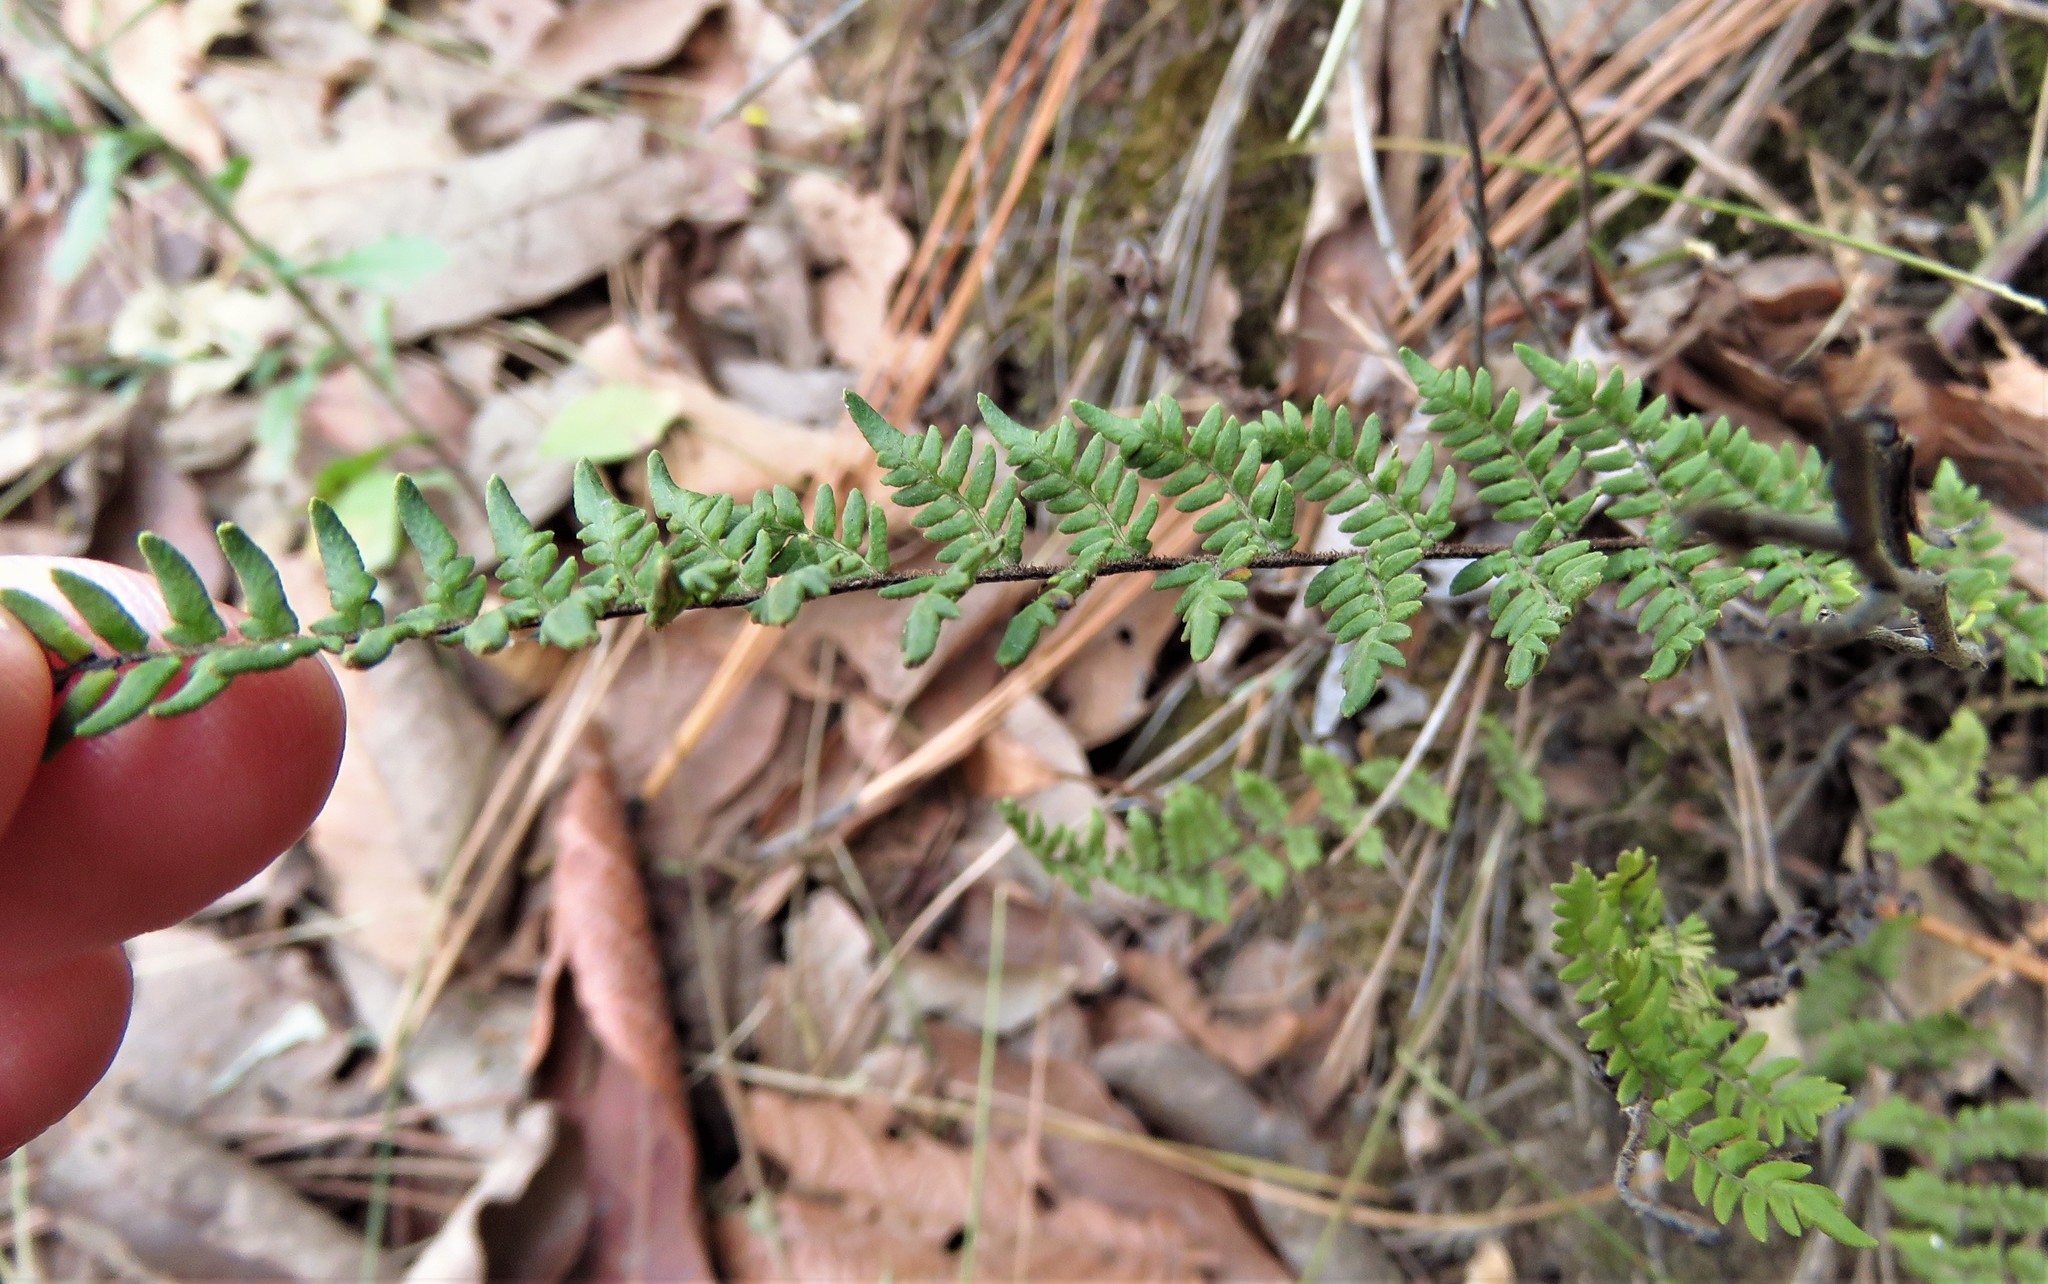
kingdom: Plantae
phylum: Tracheophyta
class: Polypodiopsida
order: Polypodiales
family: Pteridaceae
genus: Myriopteris
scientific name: Myriopteris alabamensis
